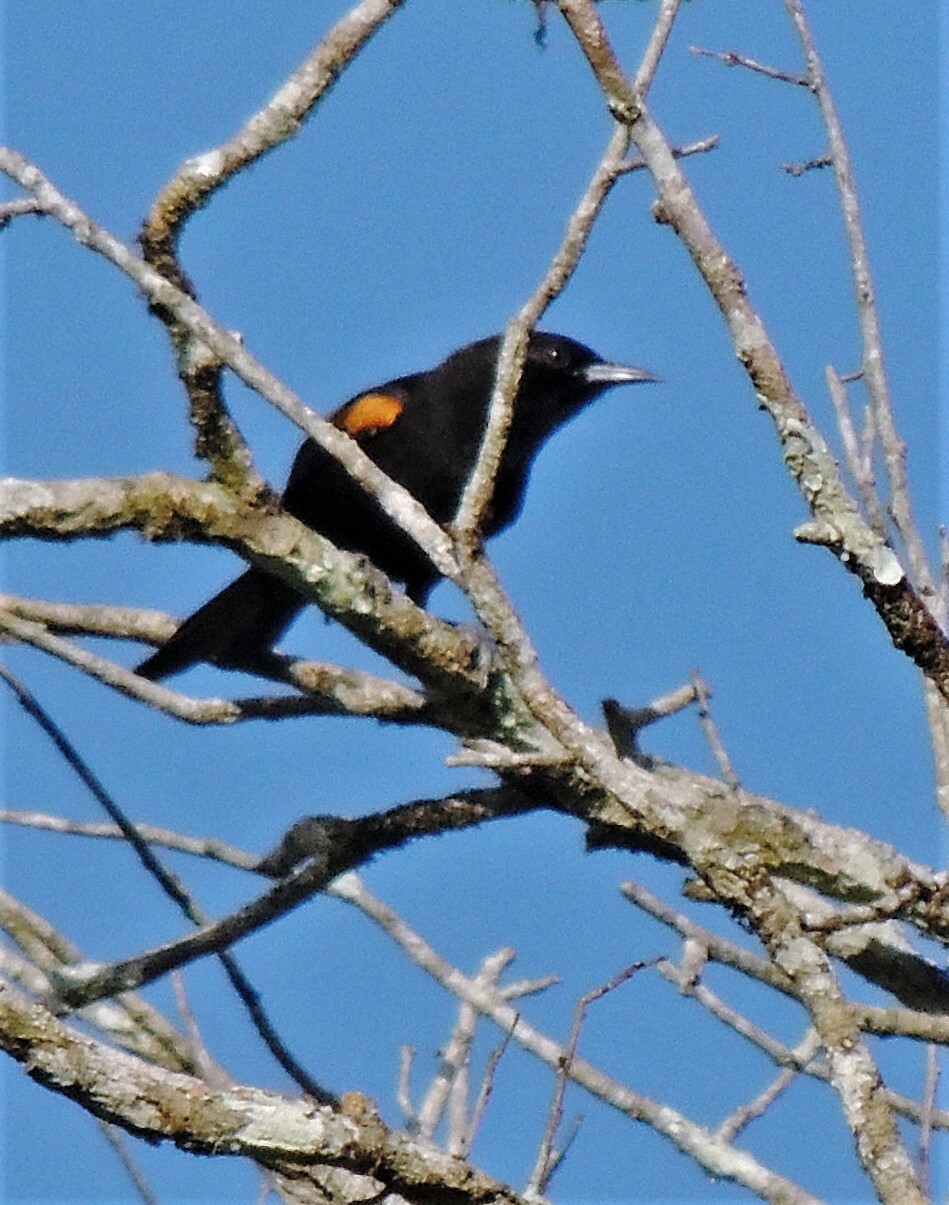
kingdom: Animalia
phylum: Chordata
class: Aves
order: Passeriformes
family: Icteridae
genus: Icterus
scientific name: Icterus cayanensis
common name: Epaulet oriole
